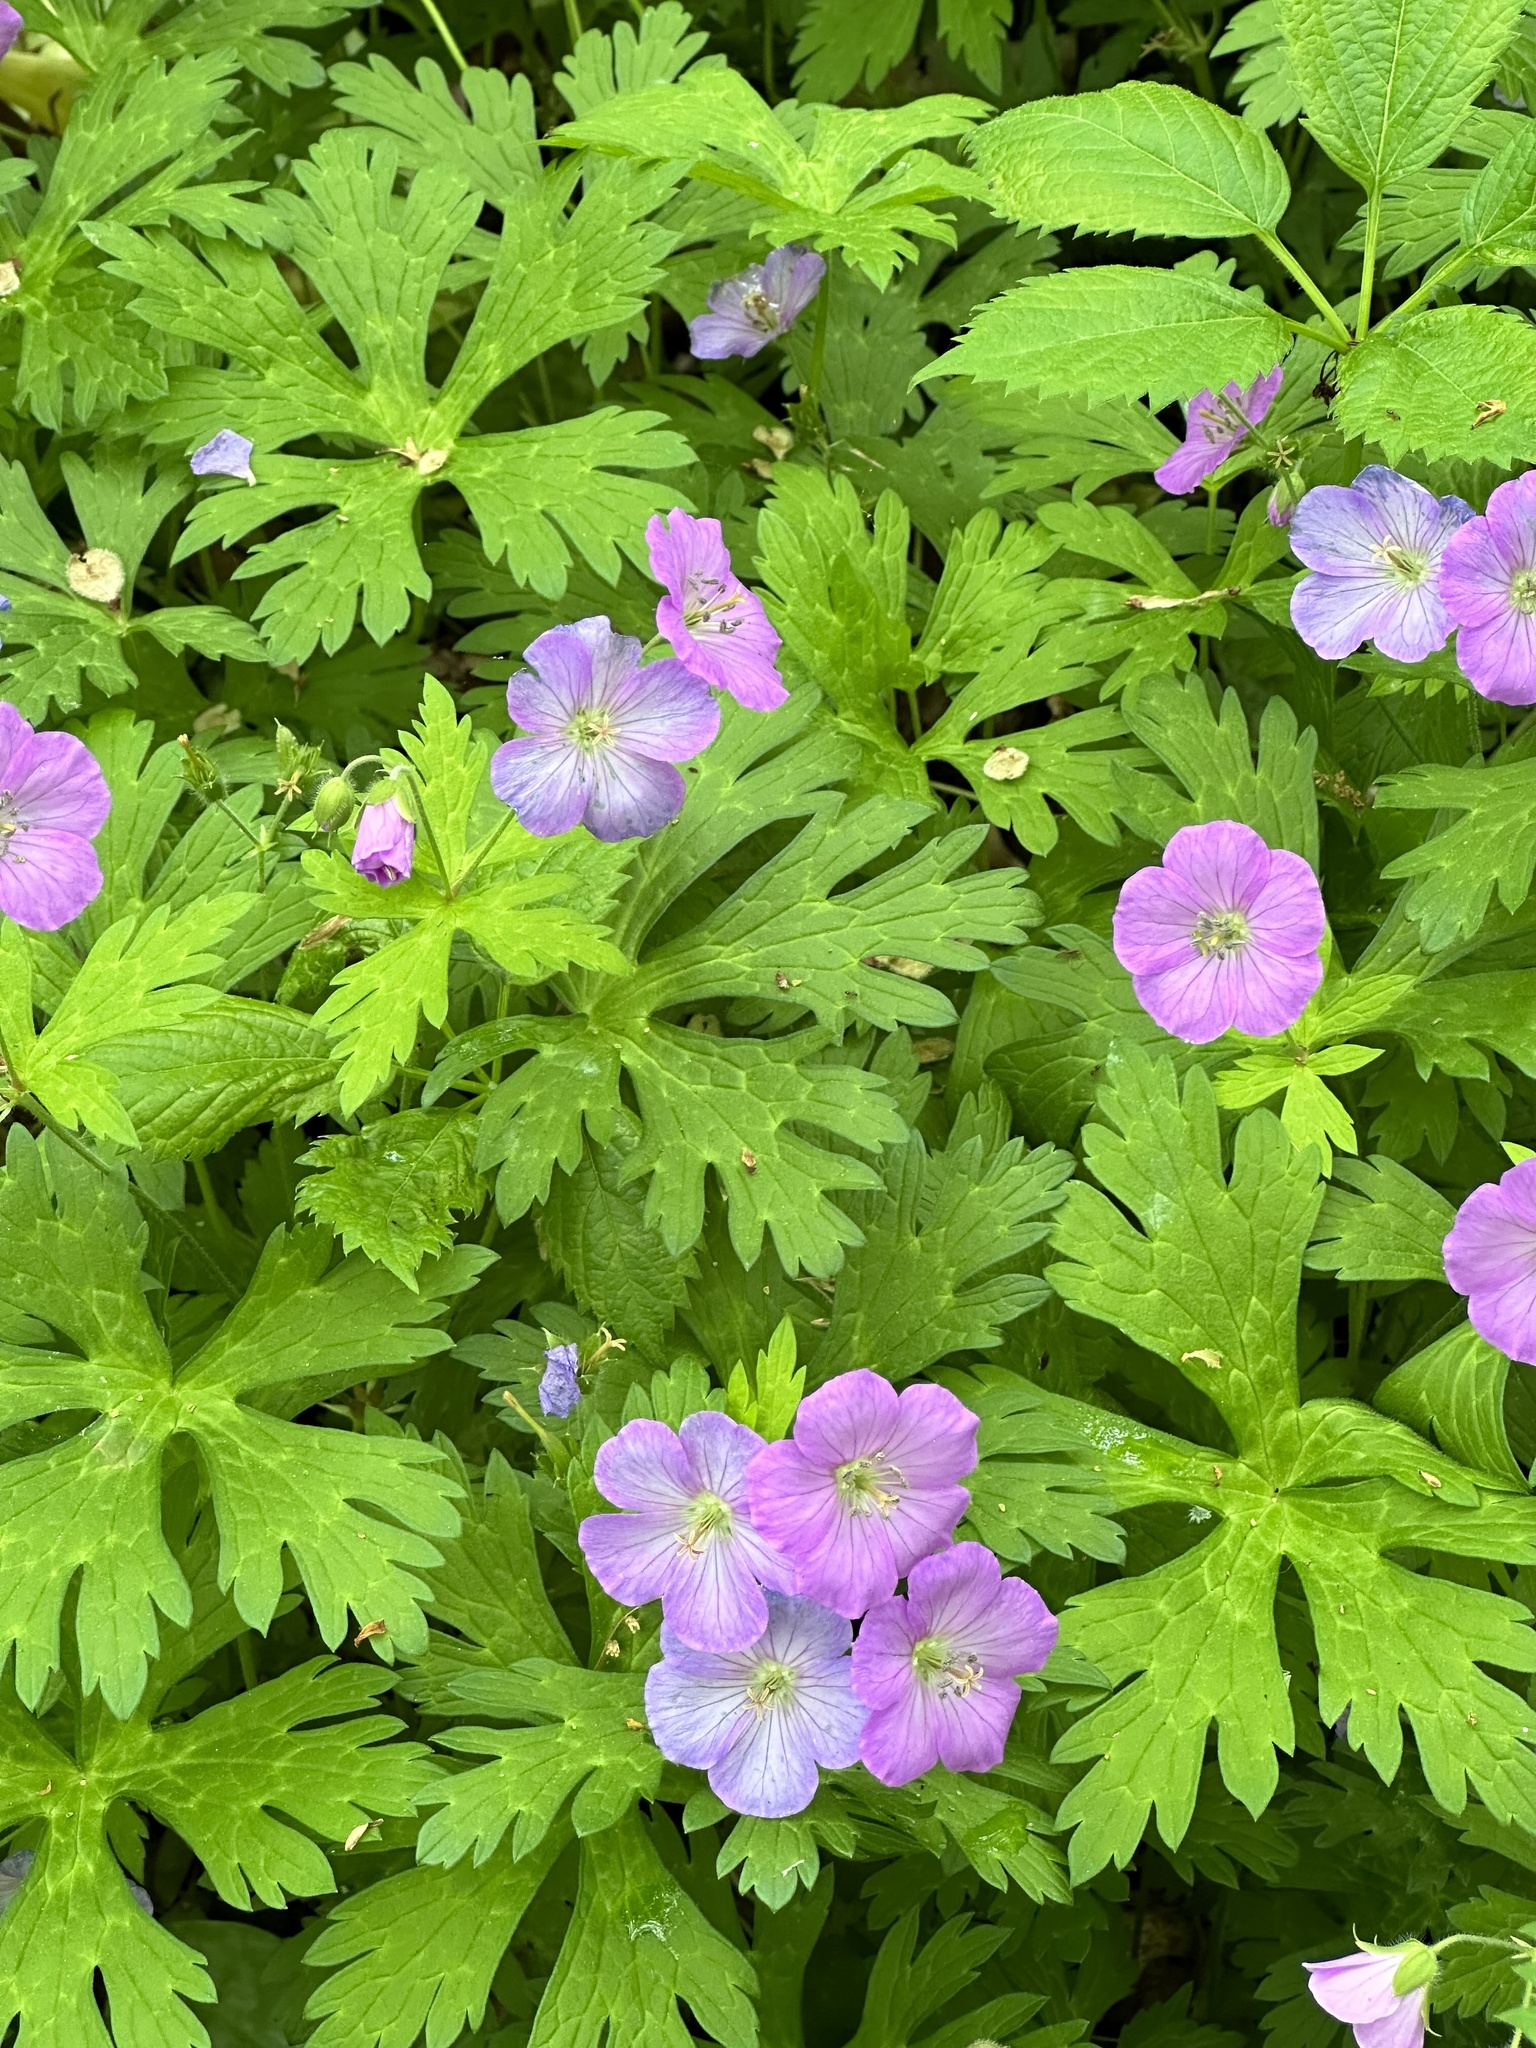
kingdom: Plantae
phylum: Tracheophyta
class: Magnoliopsida
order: Geraniales
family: Geraniaceae
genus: Geranium
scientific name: Geranium maculatum
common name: Spotted geranium
